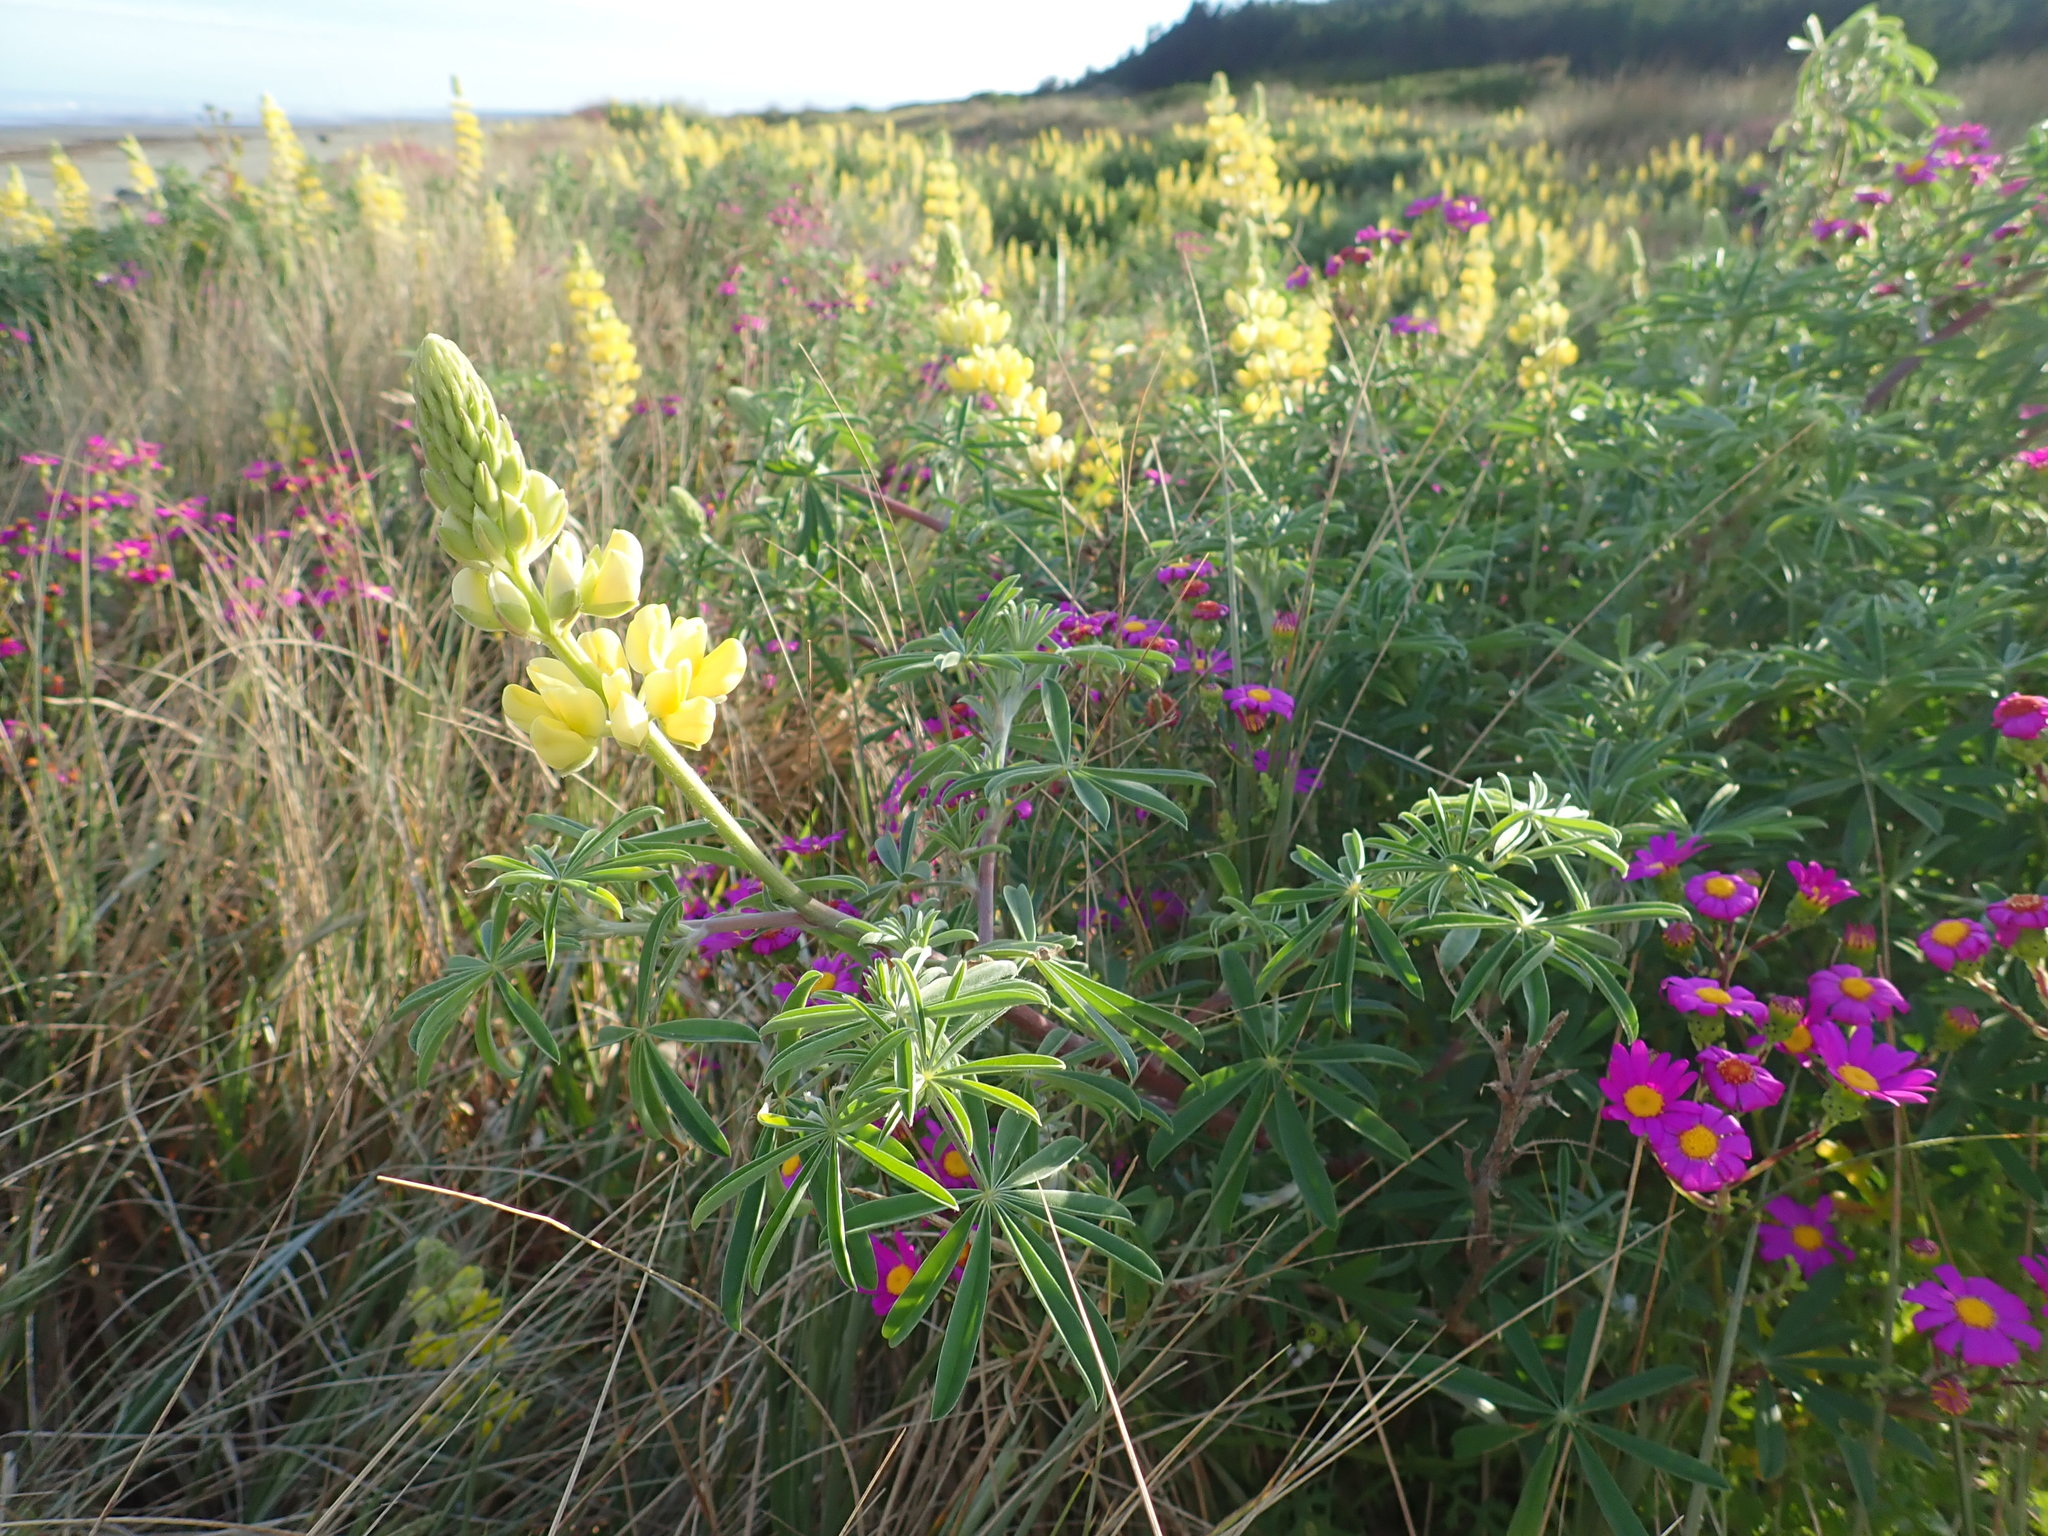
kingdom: Plantae
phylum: Tracheophyta
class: Magnoliopsida
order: Fabales
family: Fabaceae
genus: Lupinus
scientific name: Lupinus arboreus
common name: Yellow bush lupine
